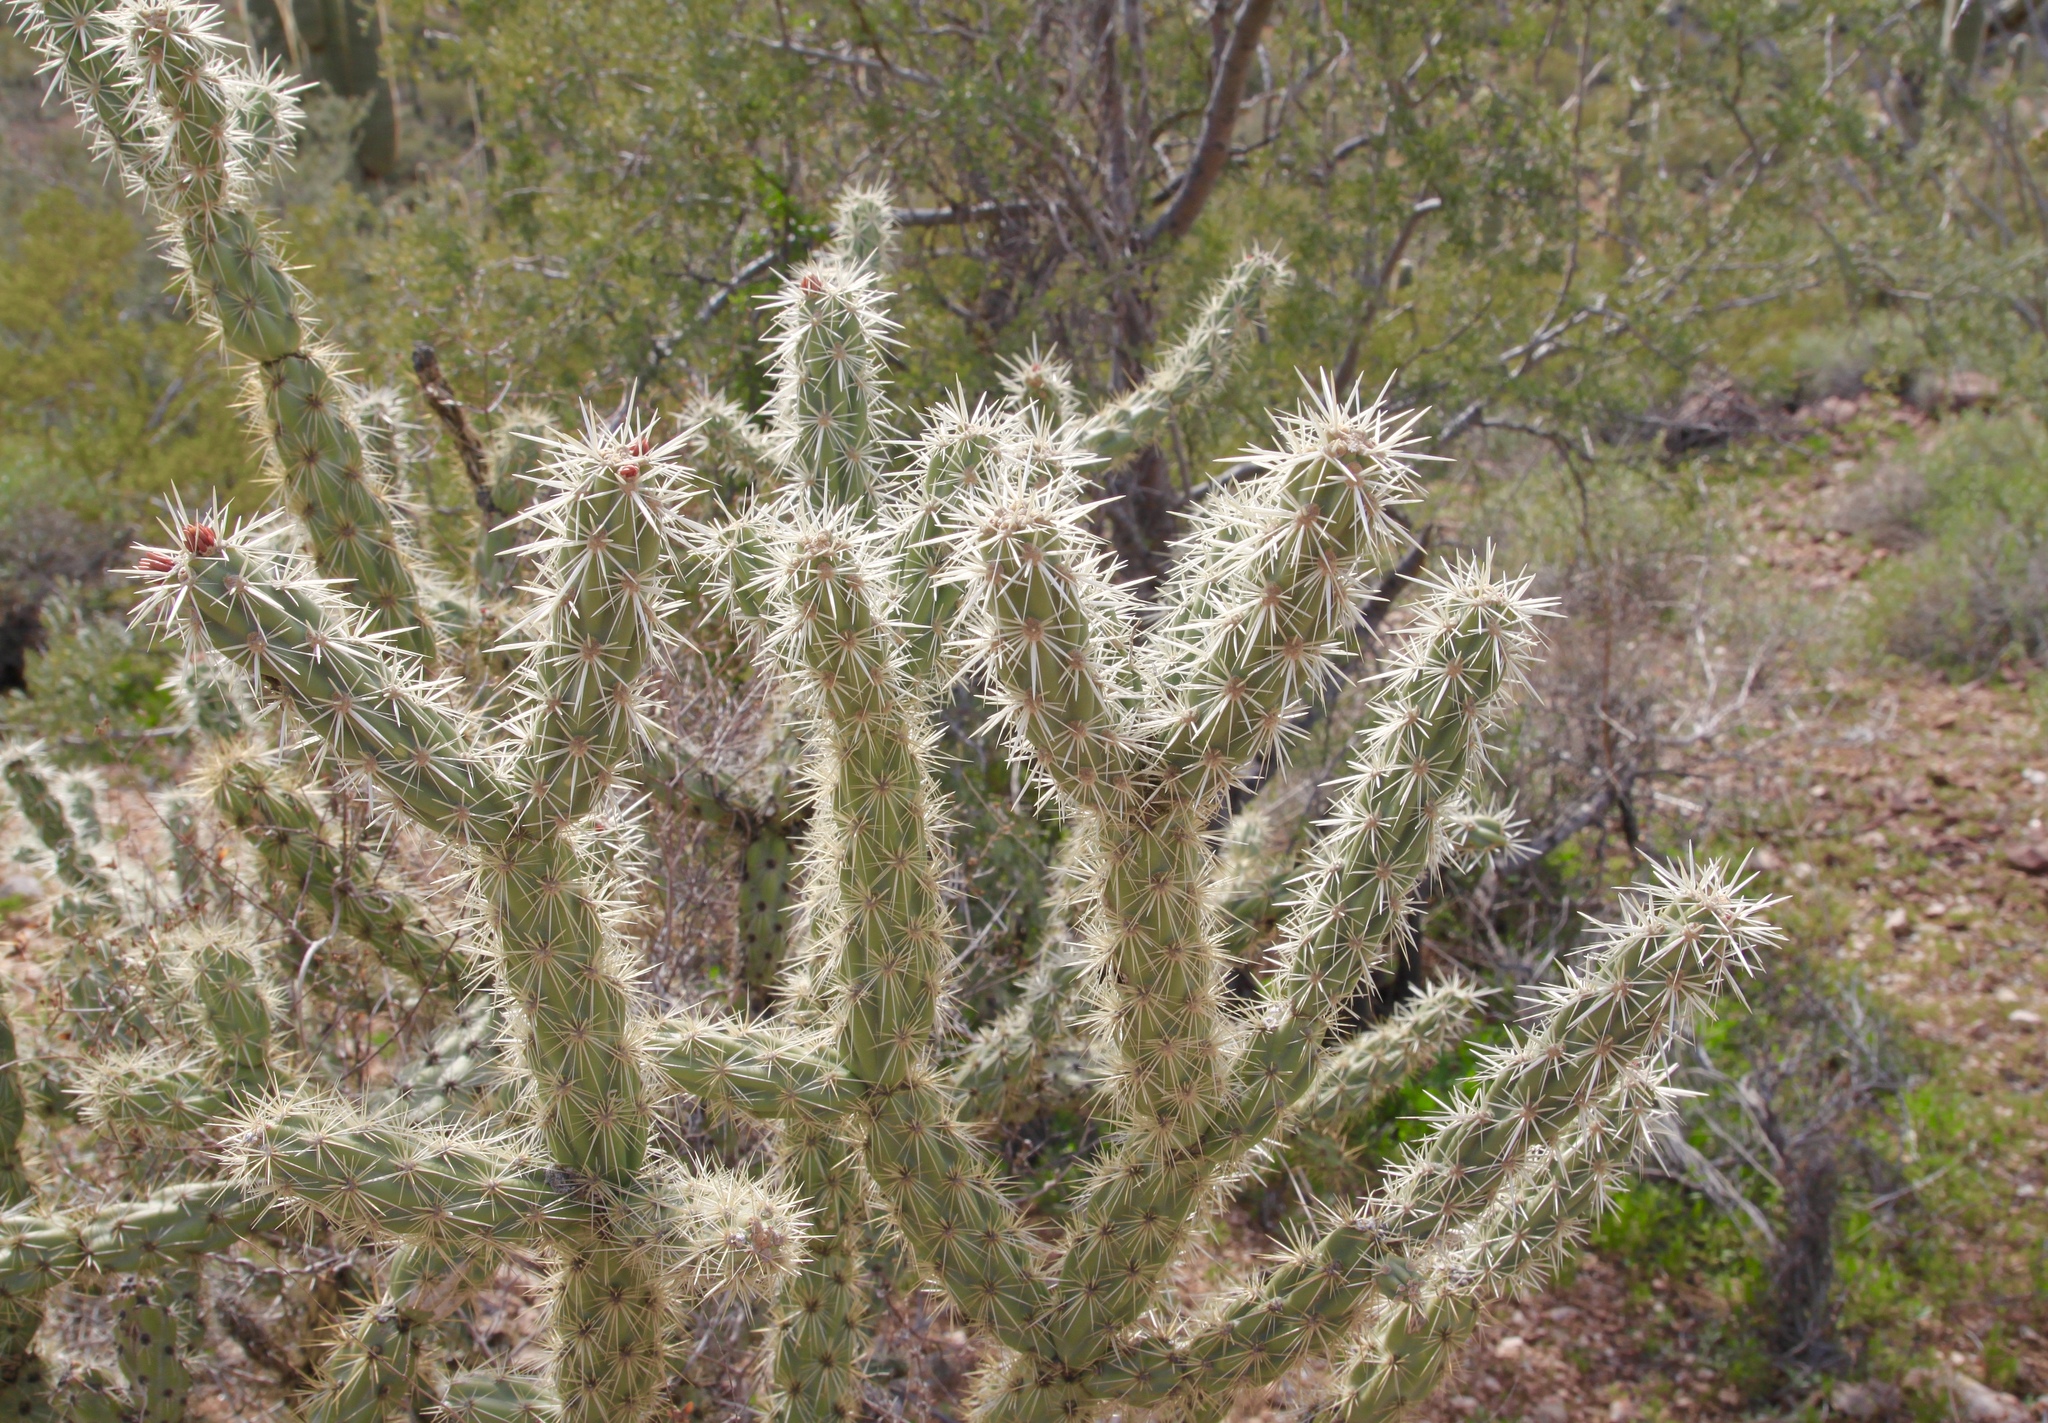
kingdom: Plantae
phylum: Tracheophyta
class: Magnoliopsida
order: Caryophyllales
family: Cactaceae
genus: Cylindropuntia
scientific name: Cylindropuntia acanthocarpa
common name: Buckhorn cholla
